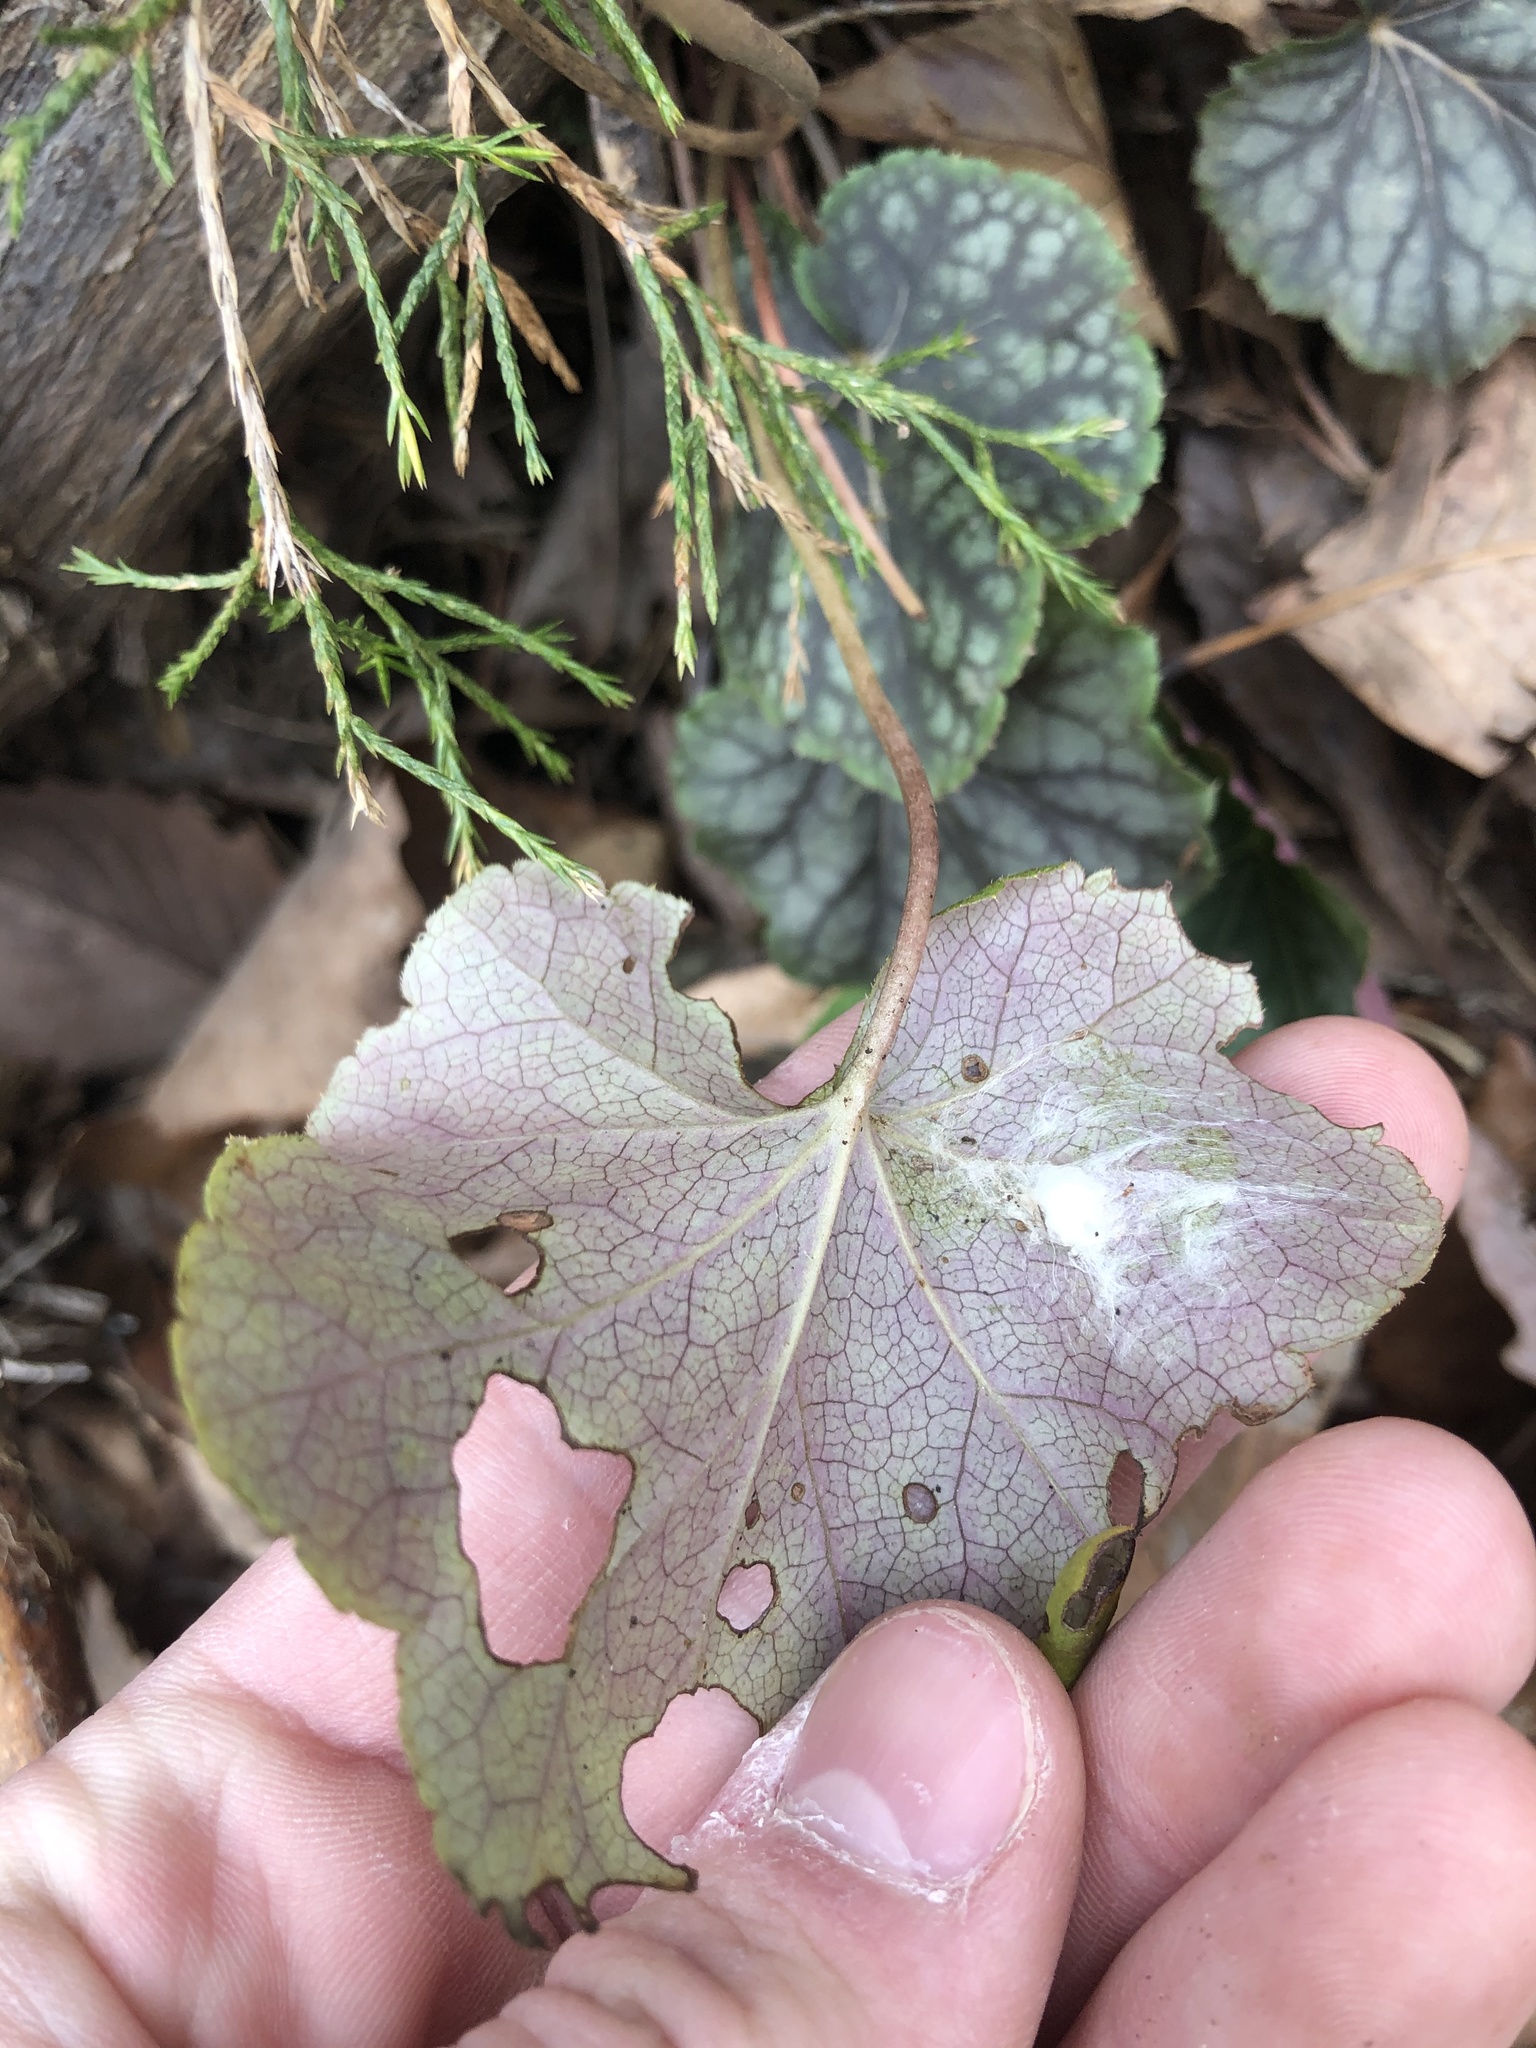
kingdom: Plantae
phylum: Tracheophyta
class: Magnoliopsida
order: Saxifragales
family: Saxifragaceae
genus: Heuchera
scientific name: Heuchera americana
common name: Alumroot
